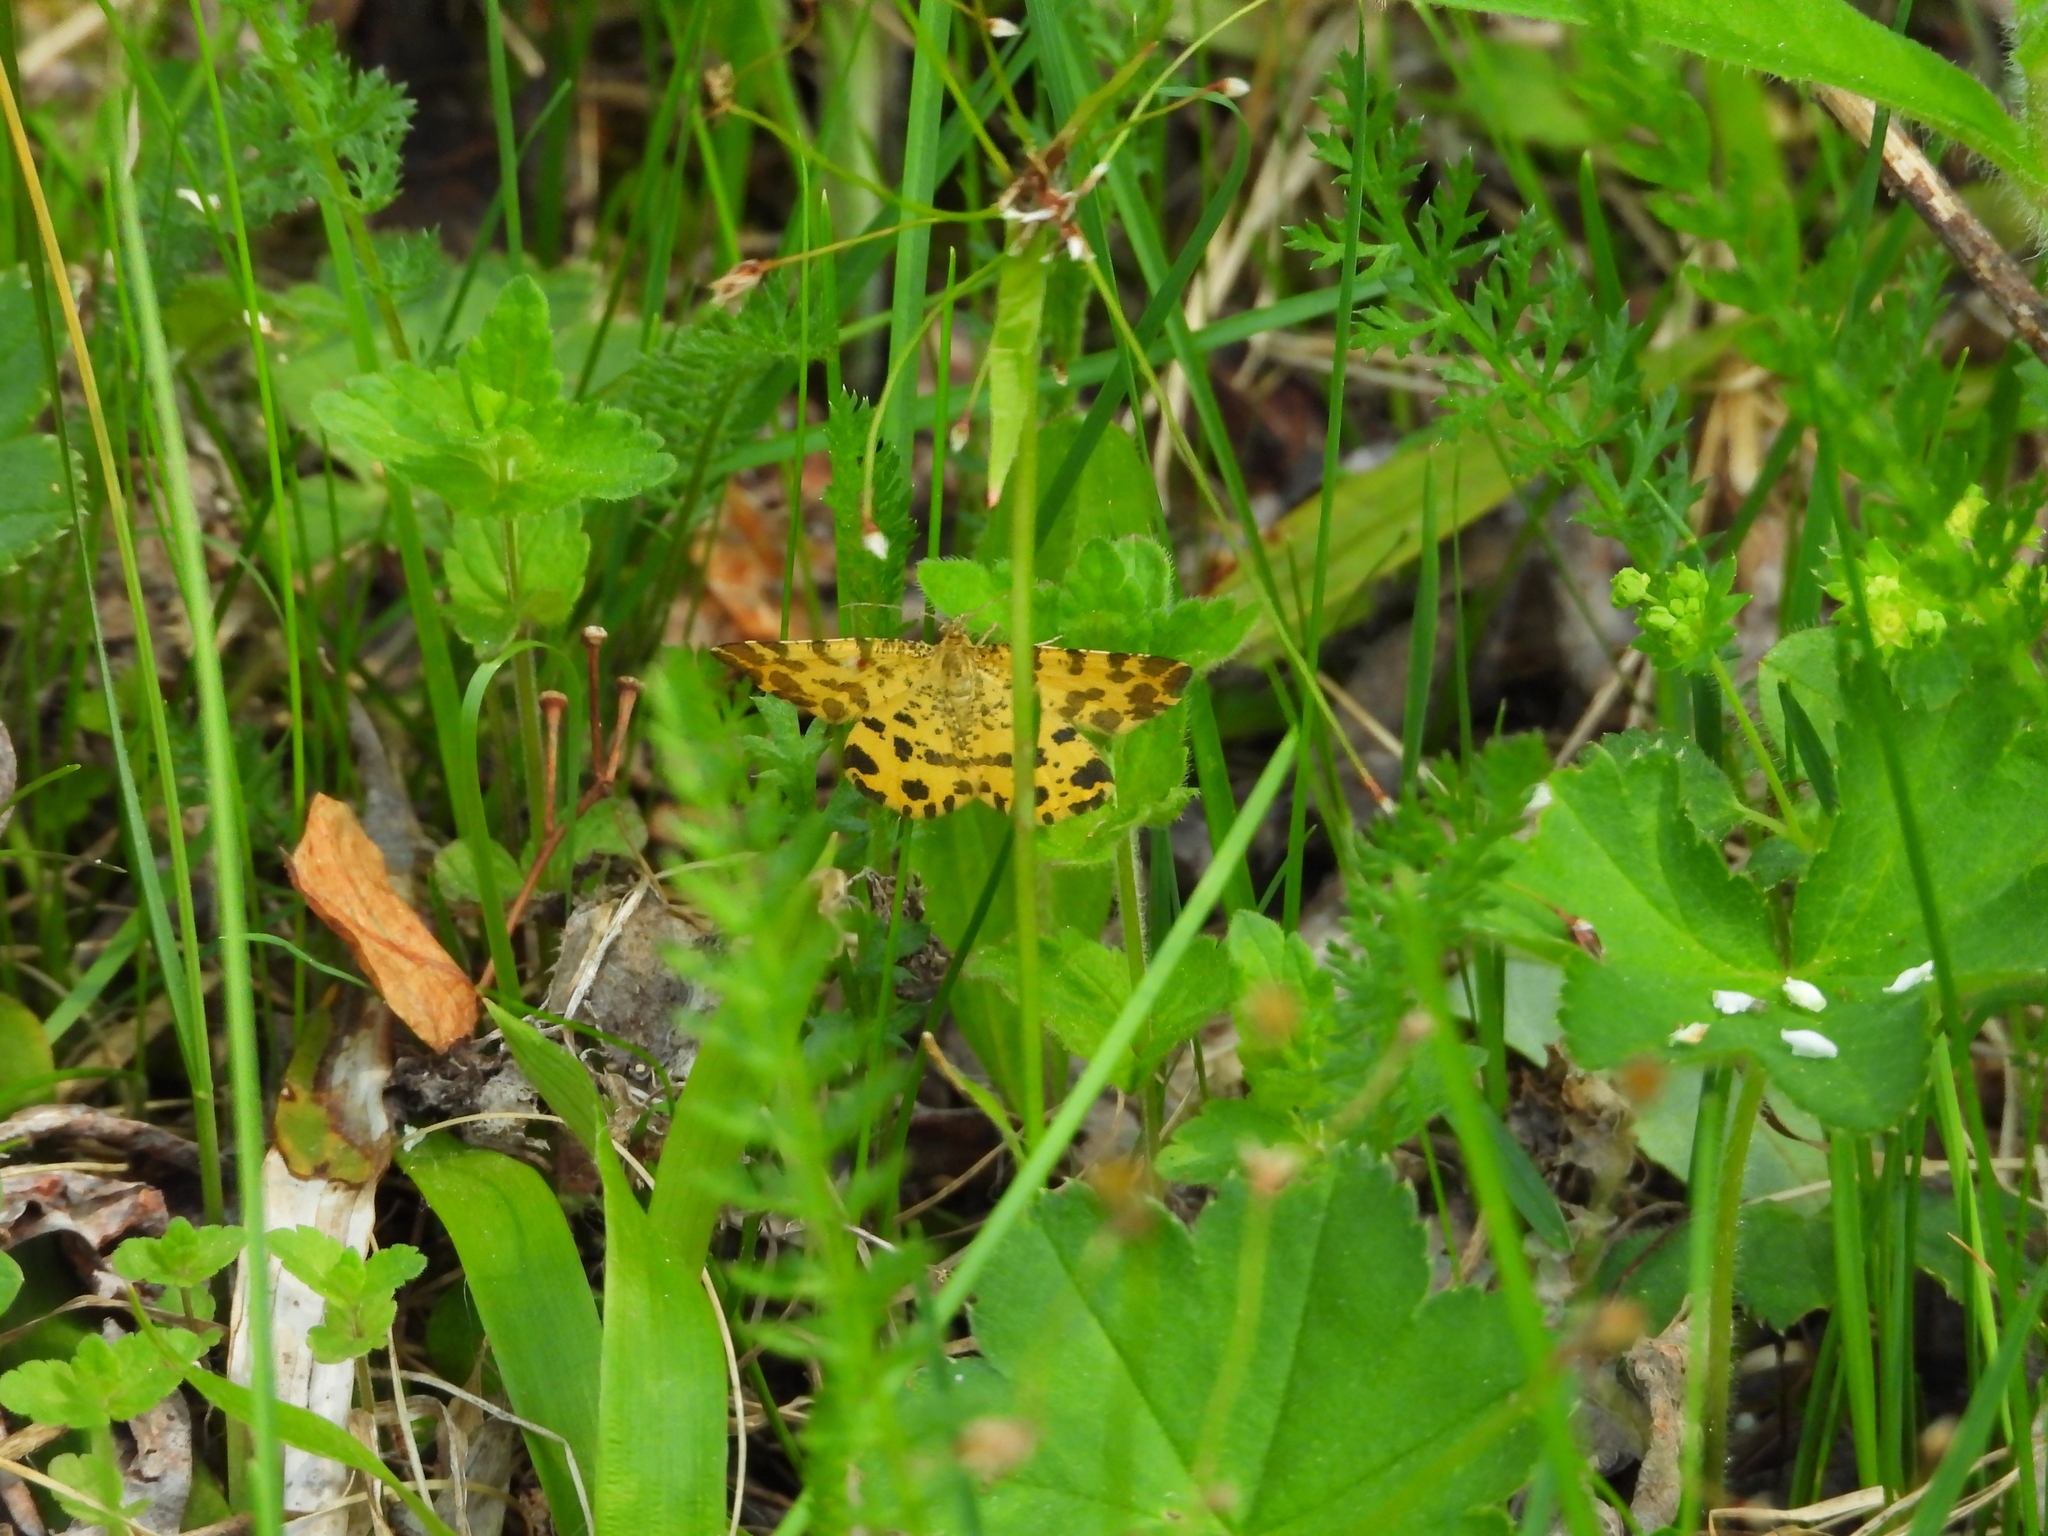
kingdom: Animalia
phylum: Arthropoda
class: Insecta
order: Lepidoptera
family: Geometridae
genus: Pseudopanthera
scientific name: Pseudopanthera macularia
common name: Speckled yellow
